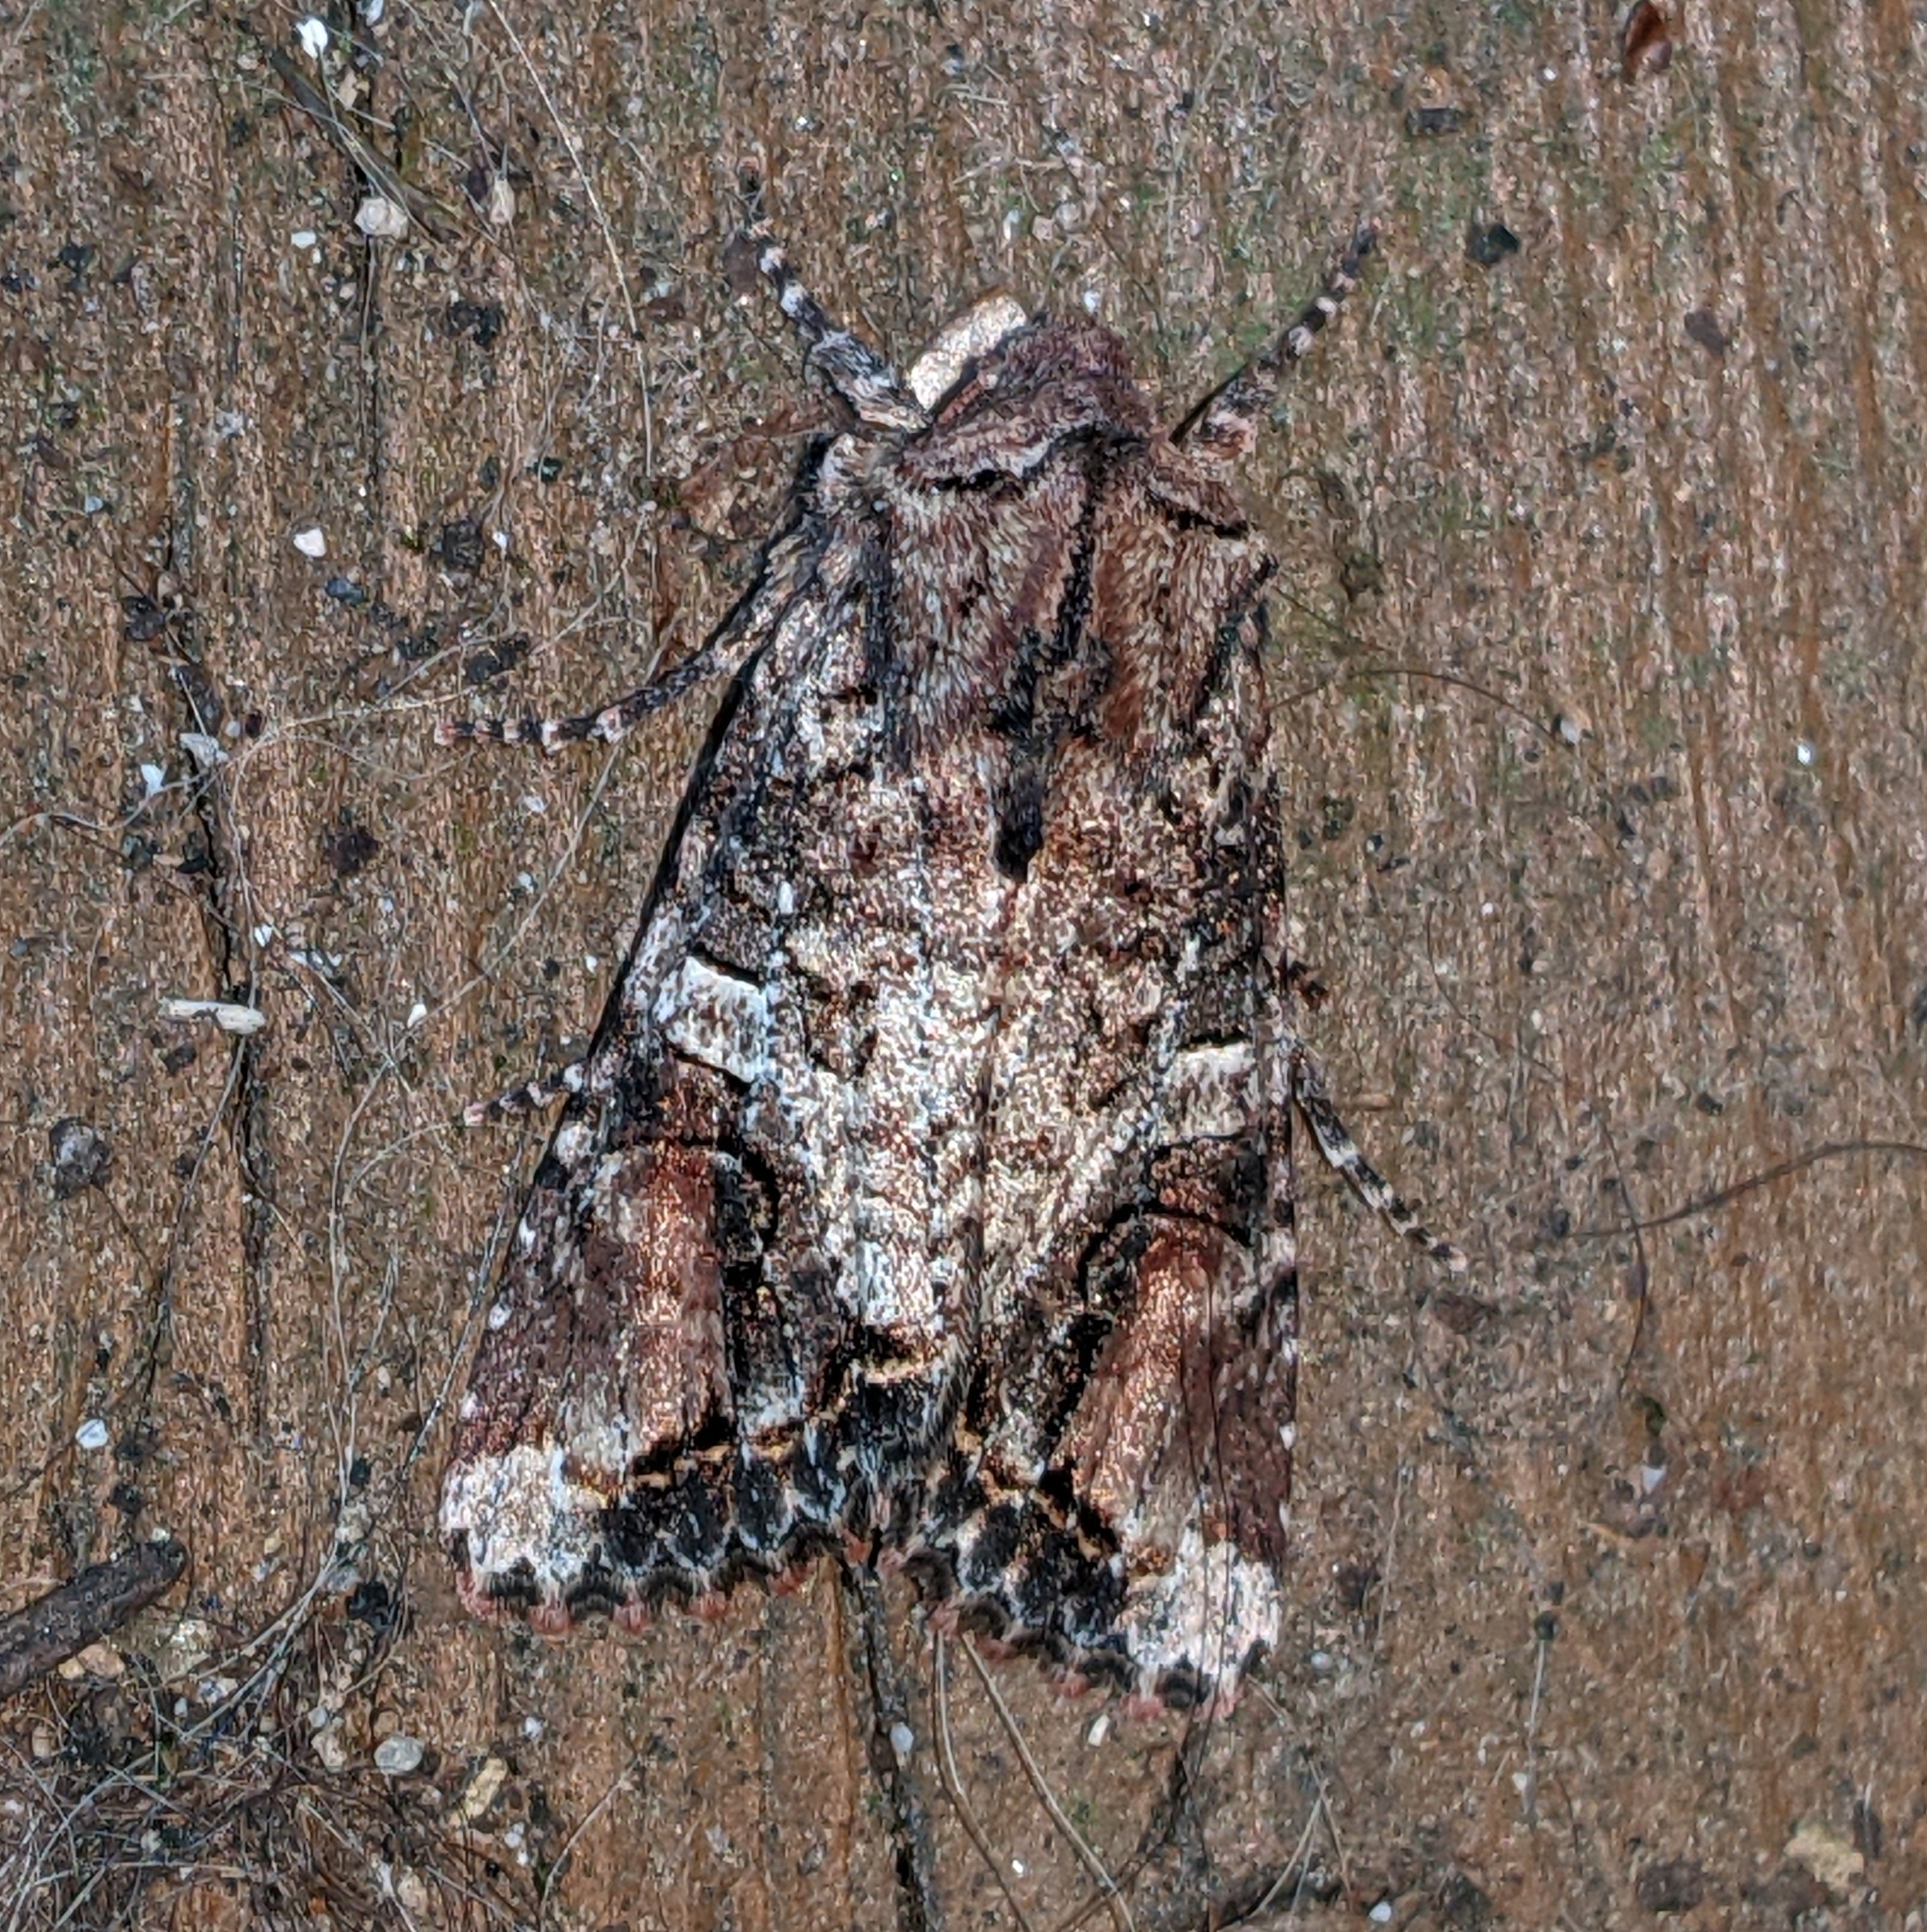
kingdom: Animalia
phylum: Arthropoda
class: Insecta
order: Lepidoptera
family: Noctuidae
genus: Egira
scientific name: Egira perlubens
